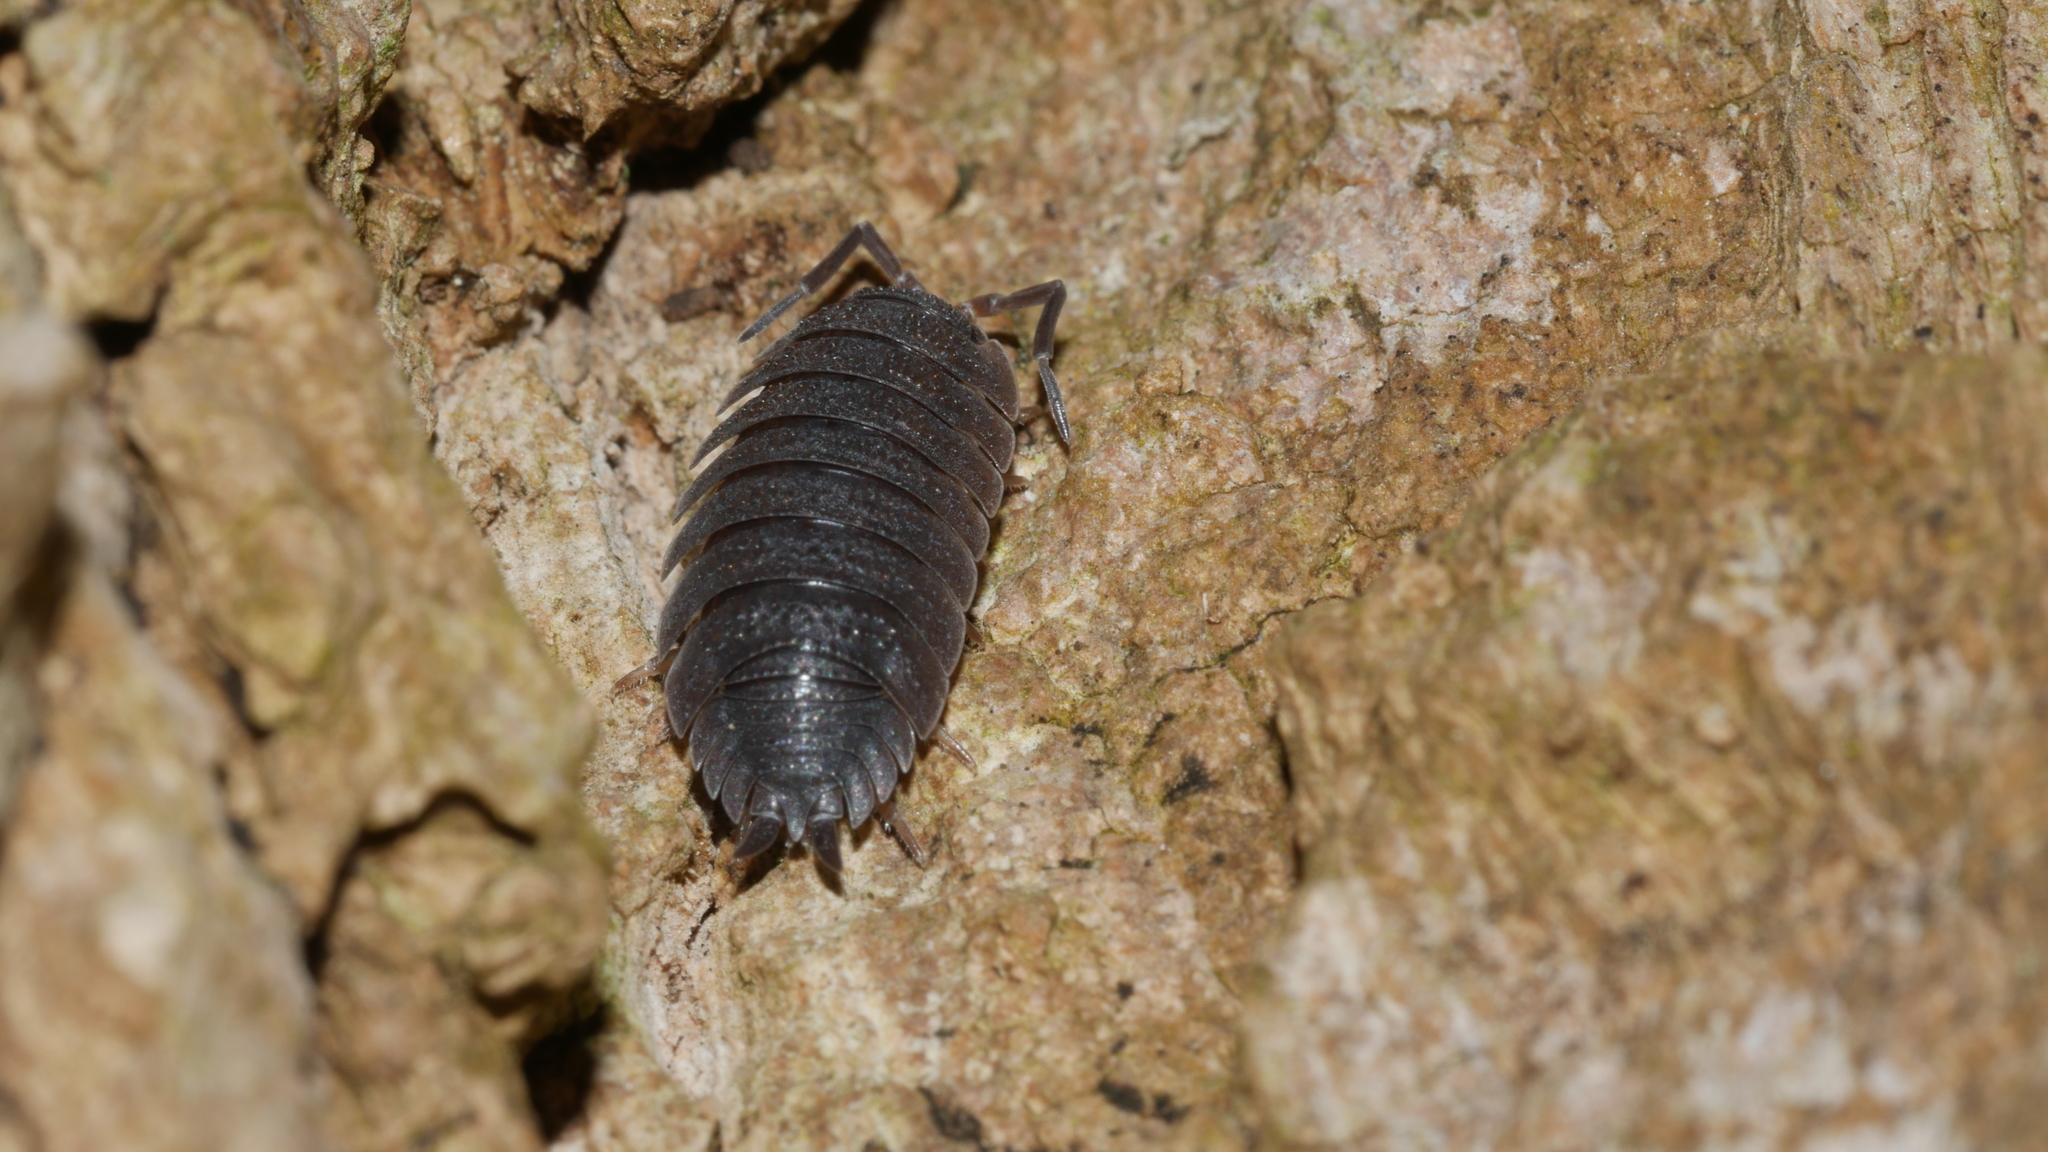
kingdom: Animalia
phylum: Arthropoda
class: Malacostraca
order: Isopoda
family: Porcellionidae
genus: Porcellio
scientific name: Porcellio scaber
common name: Common rough woodlouse
